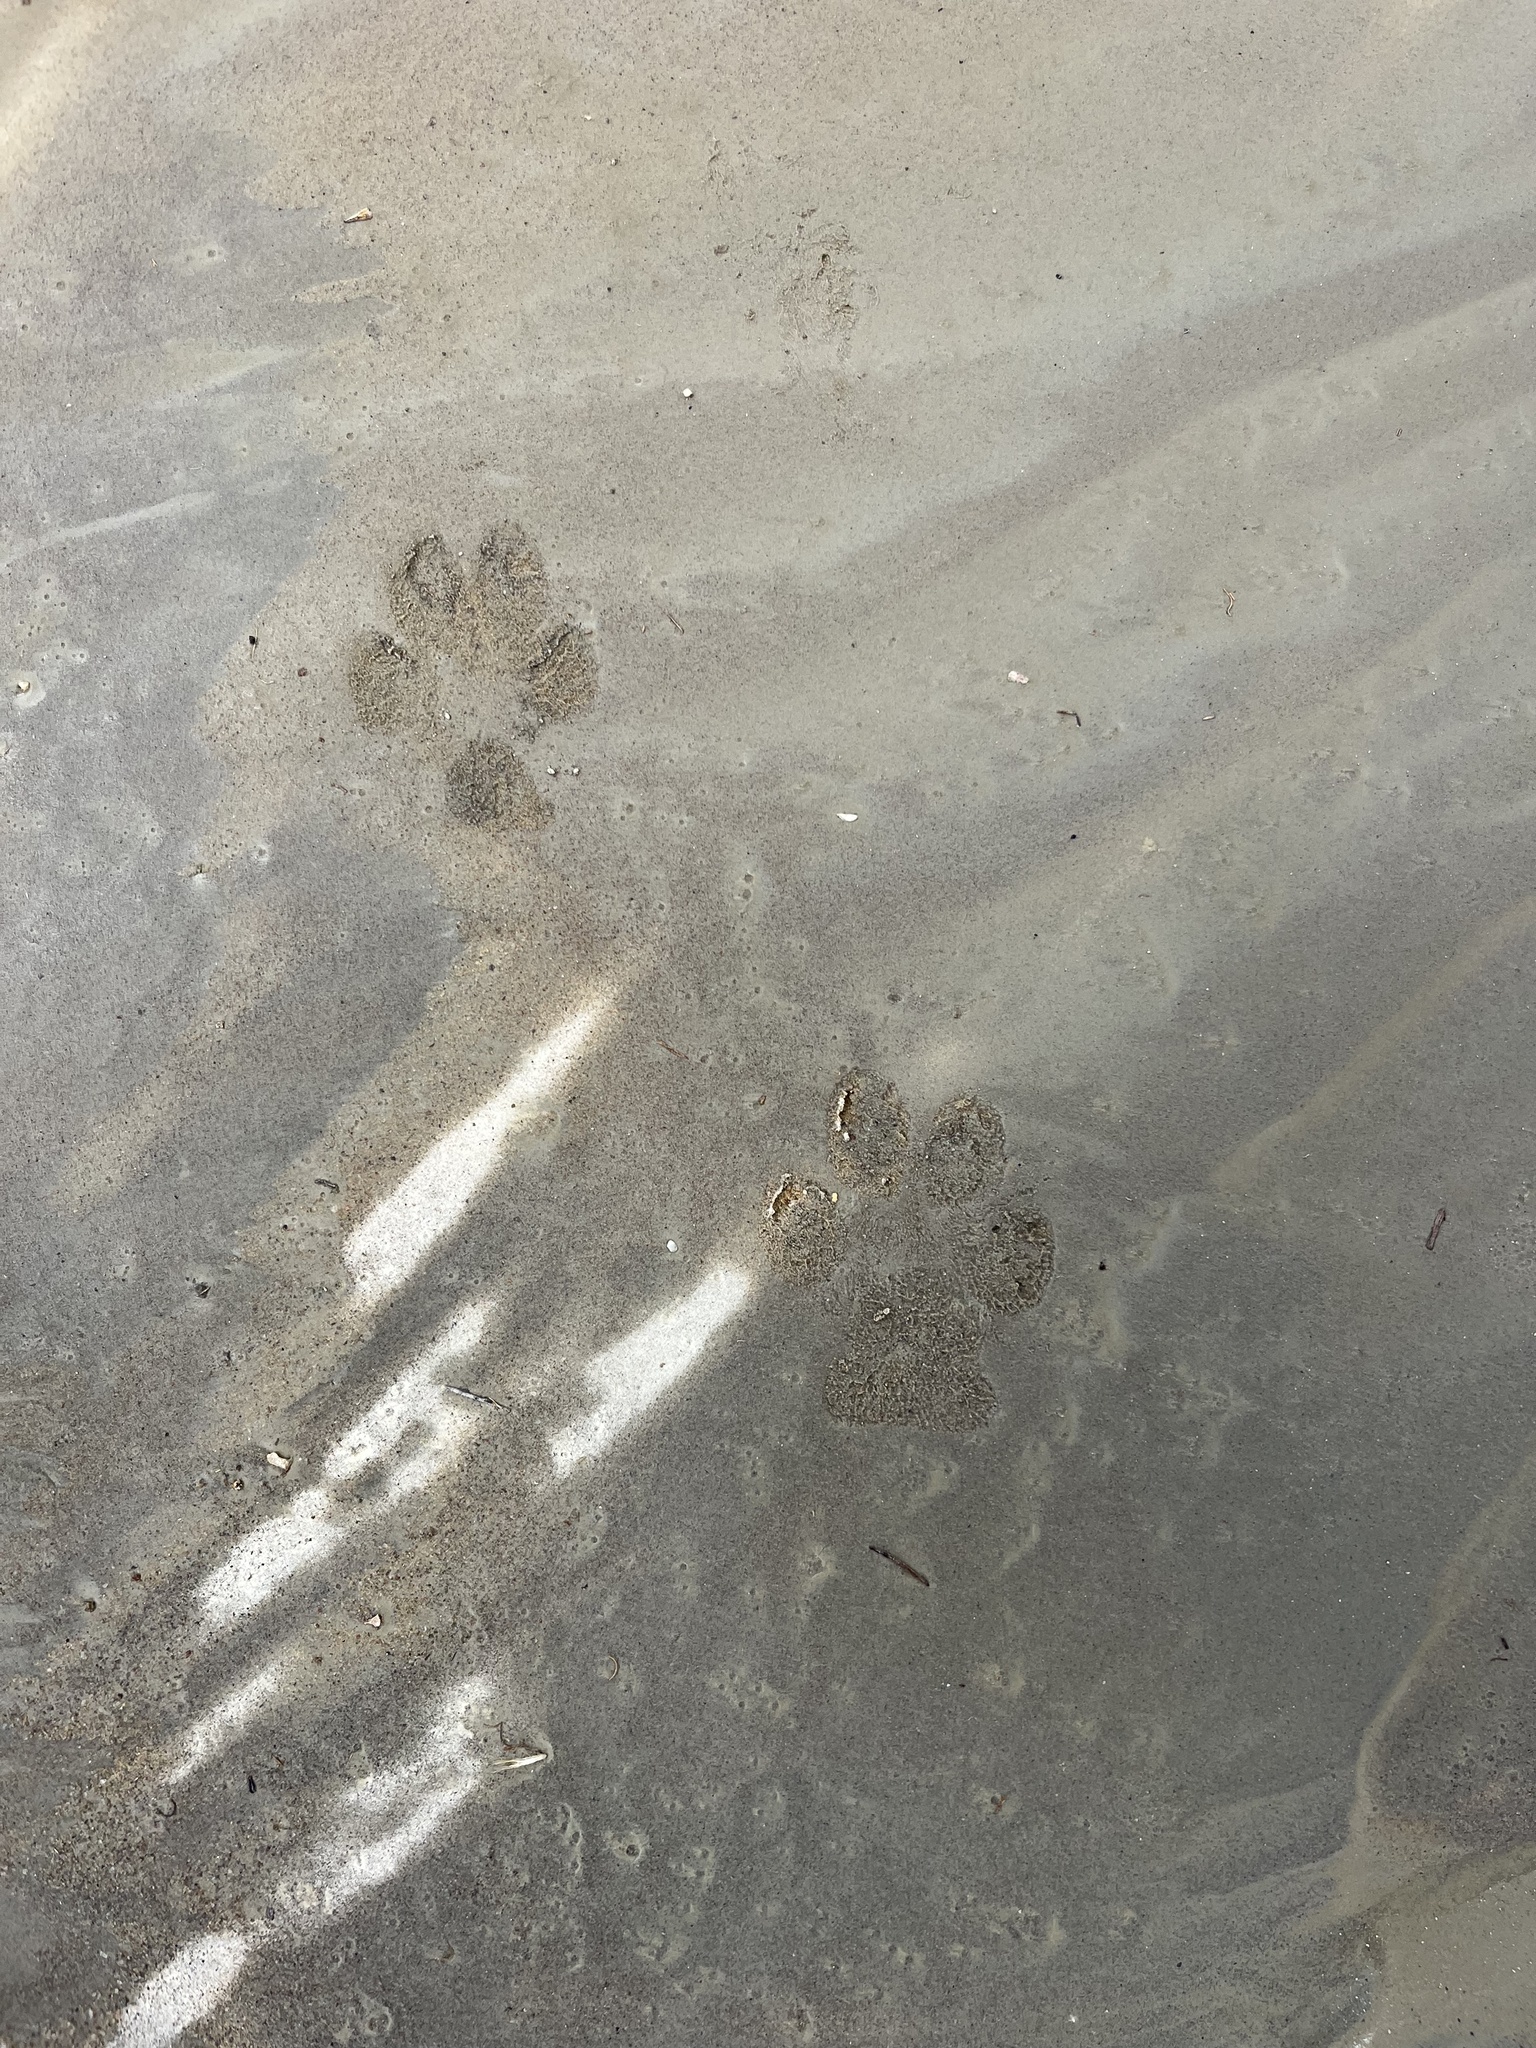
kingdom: Animalia
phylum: Chordata
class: Mammalia
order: Carnivora
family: Canidae
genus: Canis
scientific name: Canis latrans
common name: Coyote
